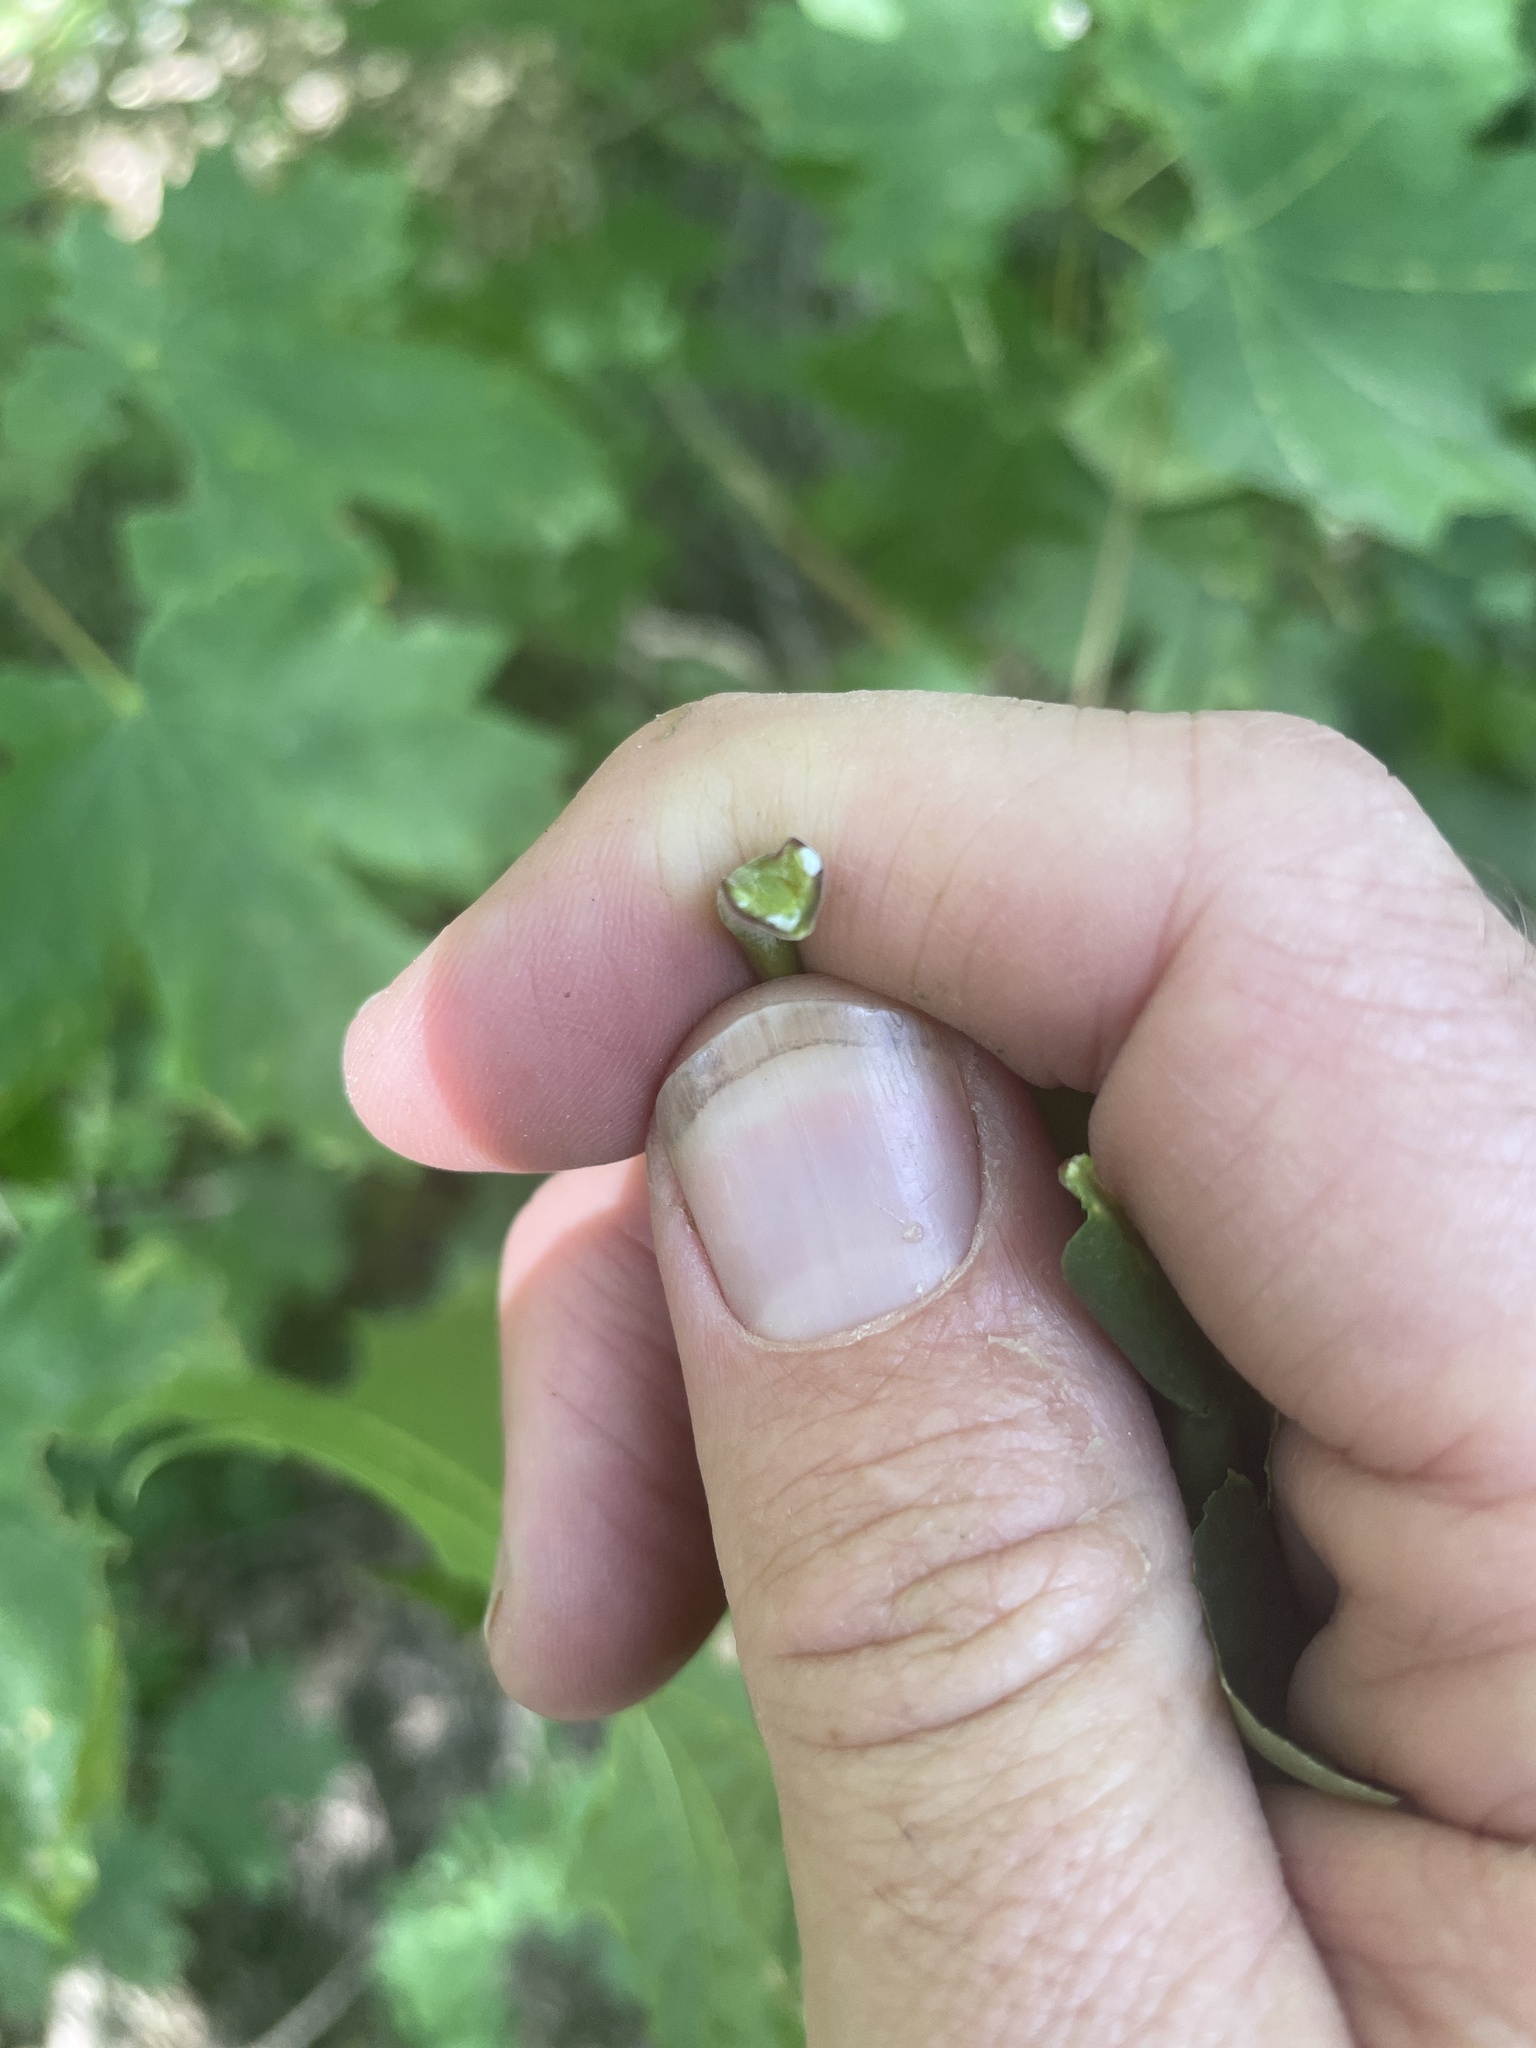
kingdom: Plantae
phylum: Tracheophyta
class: Magnoliopsida
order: Sapindales
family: Sapindaceae
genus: Acer
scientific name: Acer platanoides
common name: Norway maple
